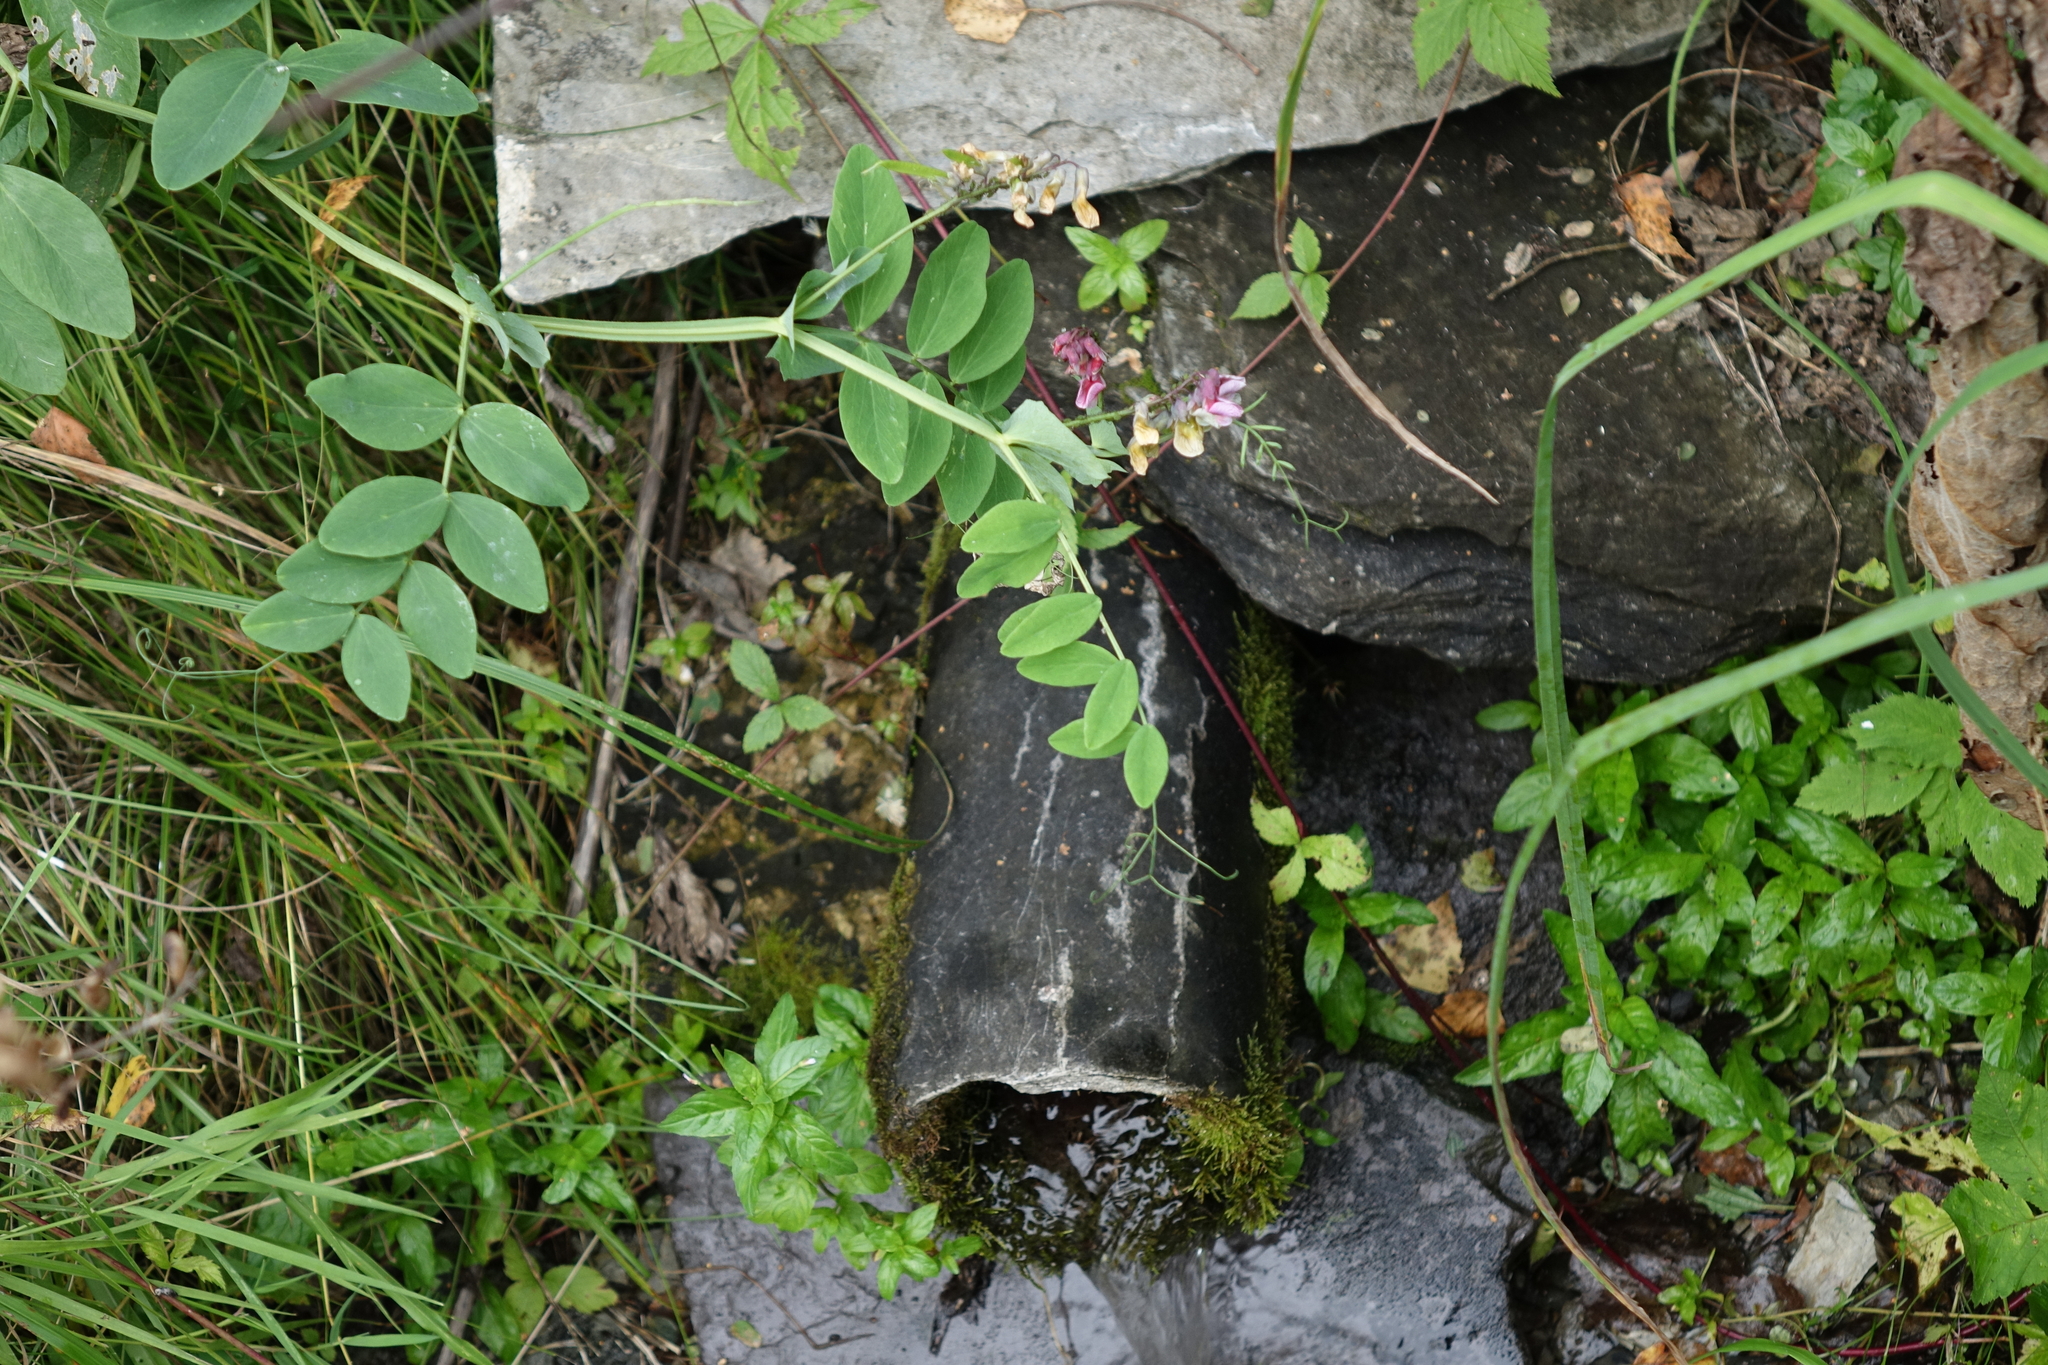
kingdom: Plantae
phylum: Tracheophyta
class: Magnoliopsida
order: Fabales
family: Fabaceae
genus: Lathyrus
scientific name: Lathyrus pisiformis
